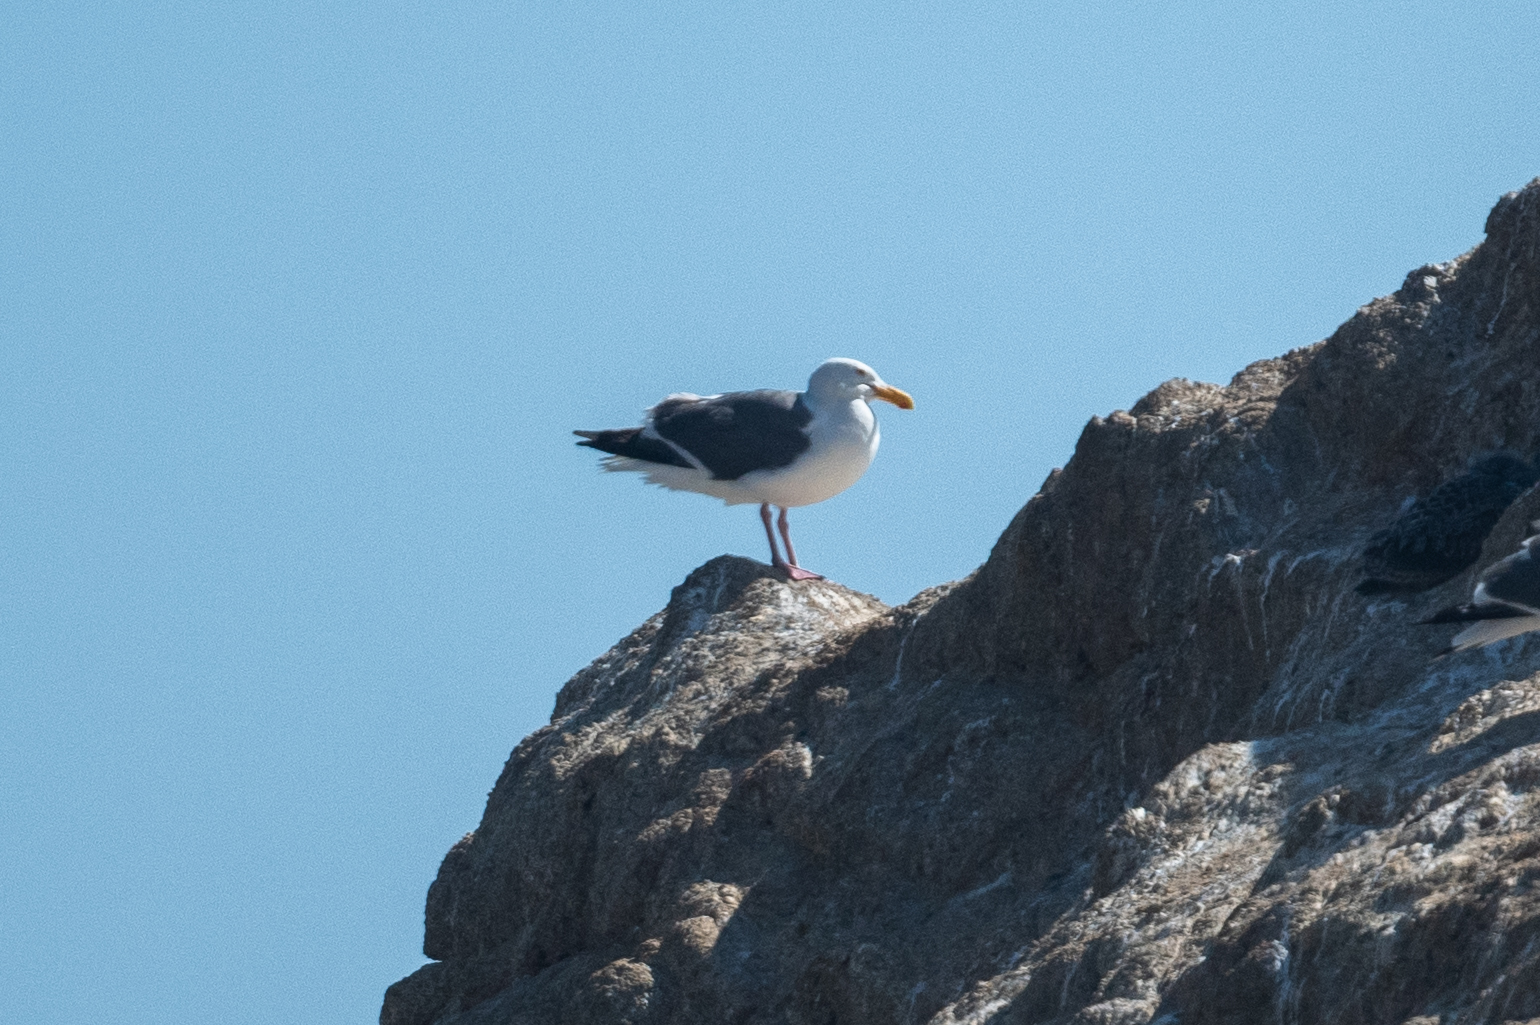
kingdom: Animalia
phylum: Chordata
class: Aves
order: Charadriiformes
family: Laridae
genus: Larus
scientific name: Larus occidentalis
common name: Western gull
